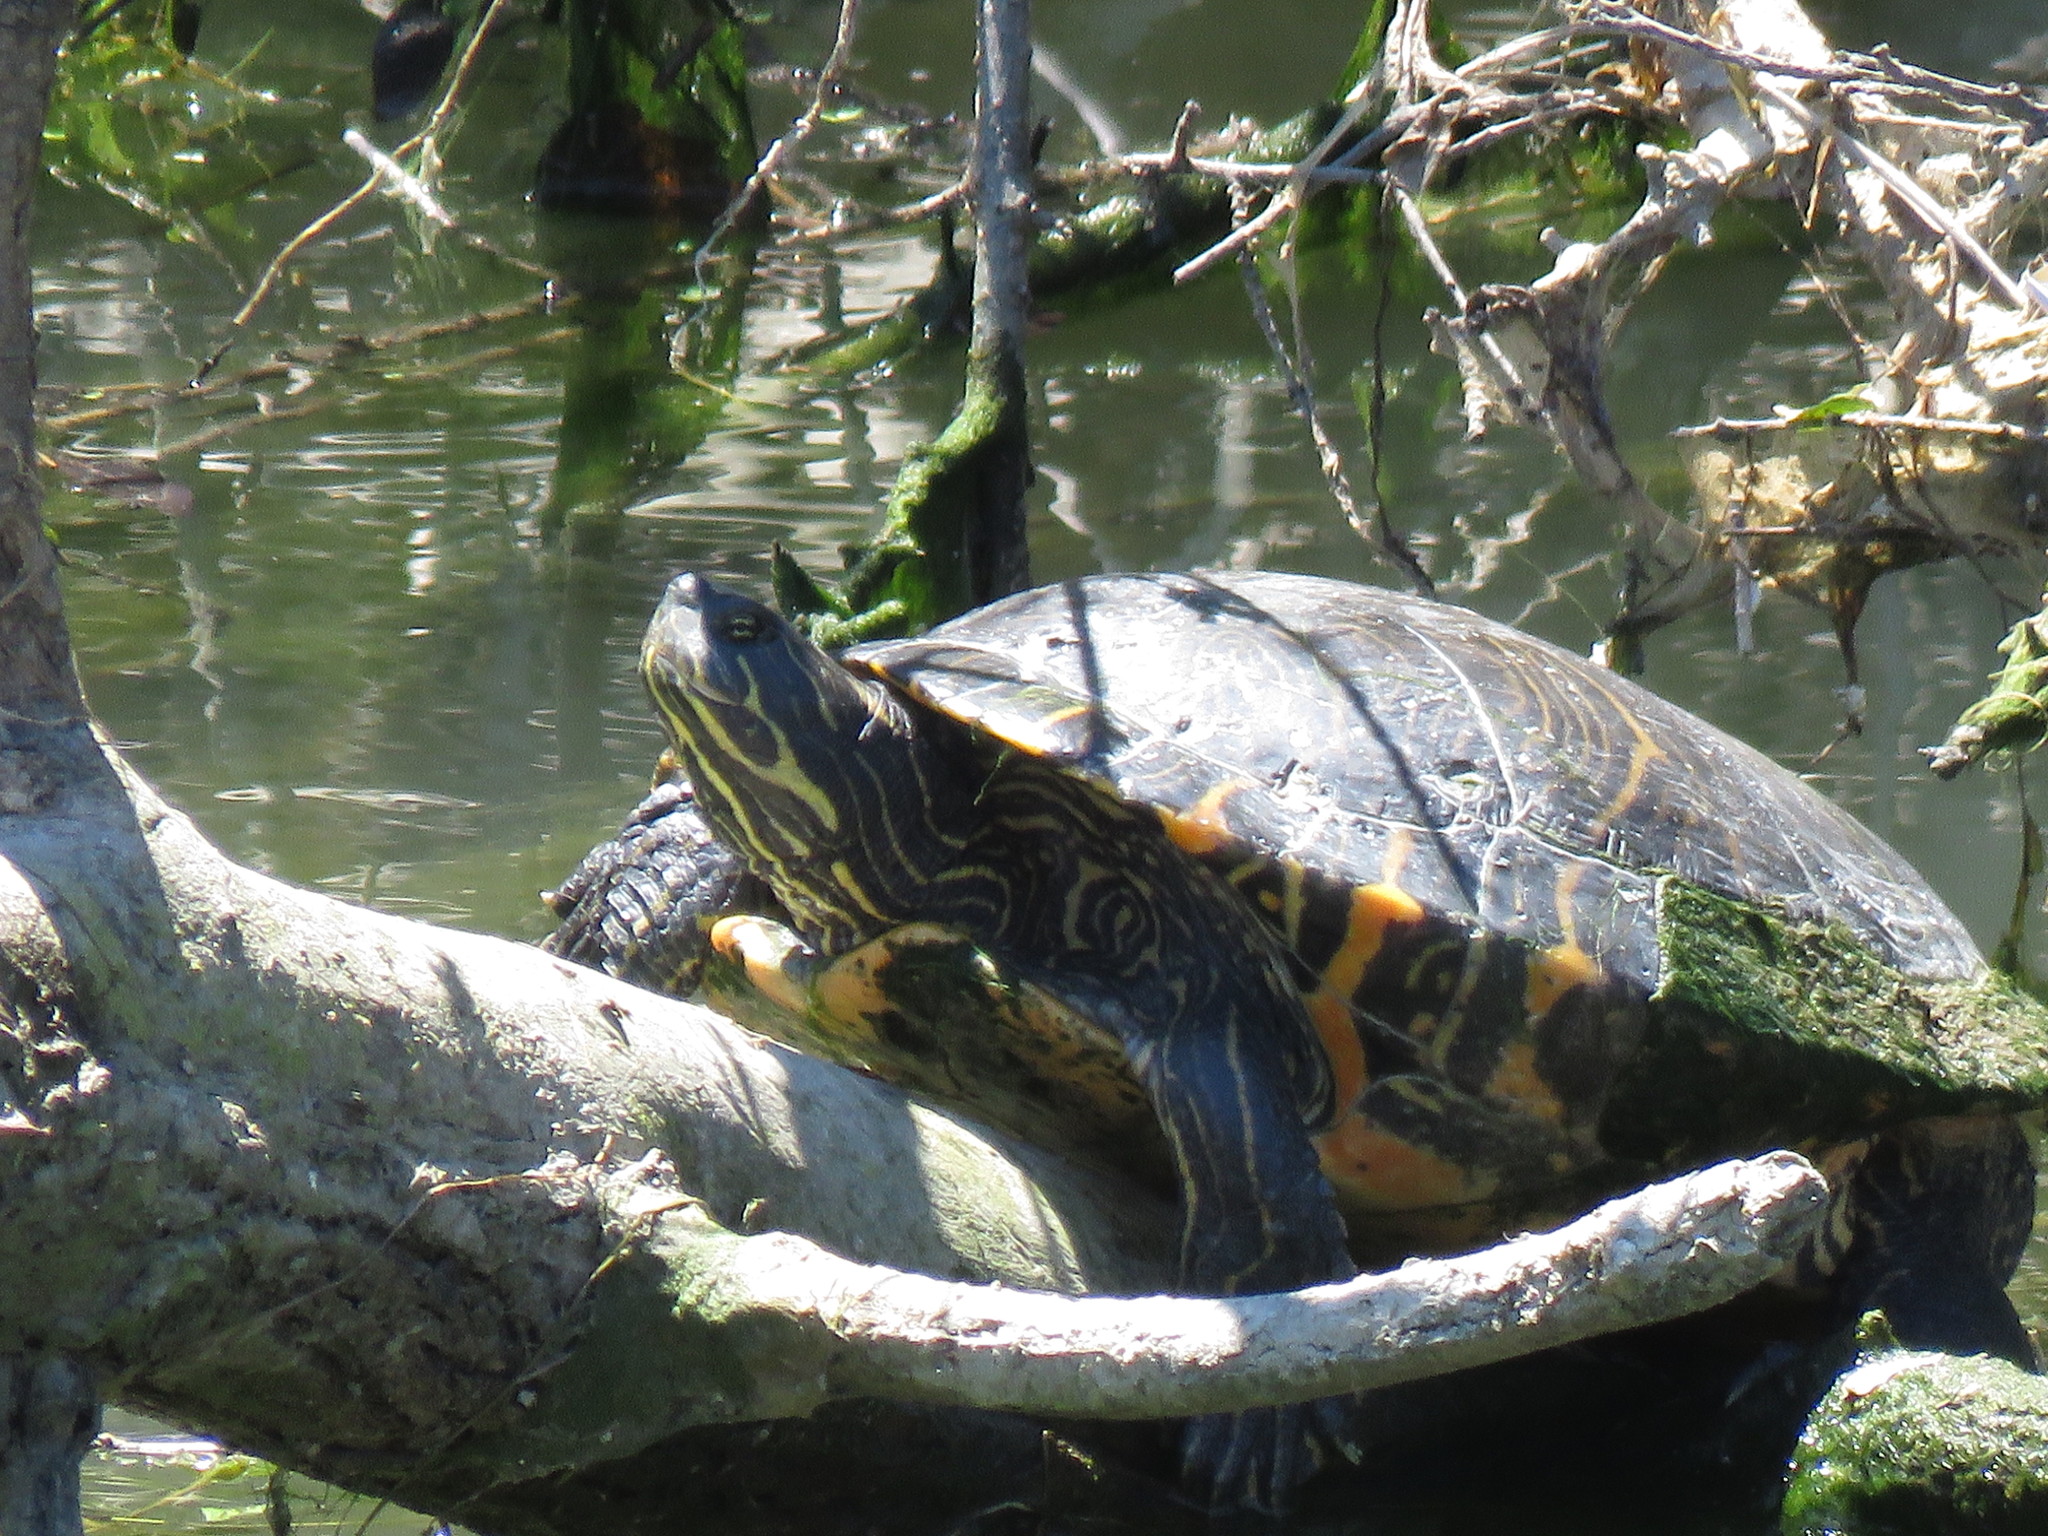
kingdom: Animalia
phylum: Chordata
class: Testudines
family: Emydidae
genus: Pseudemys
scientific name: Pseudemys concinna
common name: Eastern river cooter
